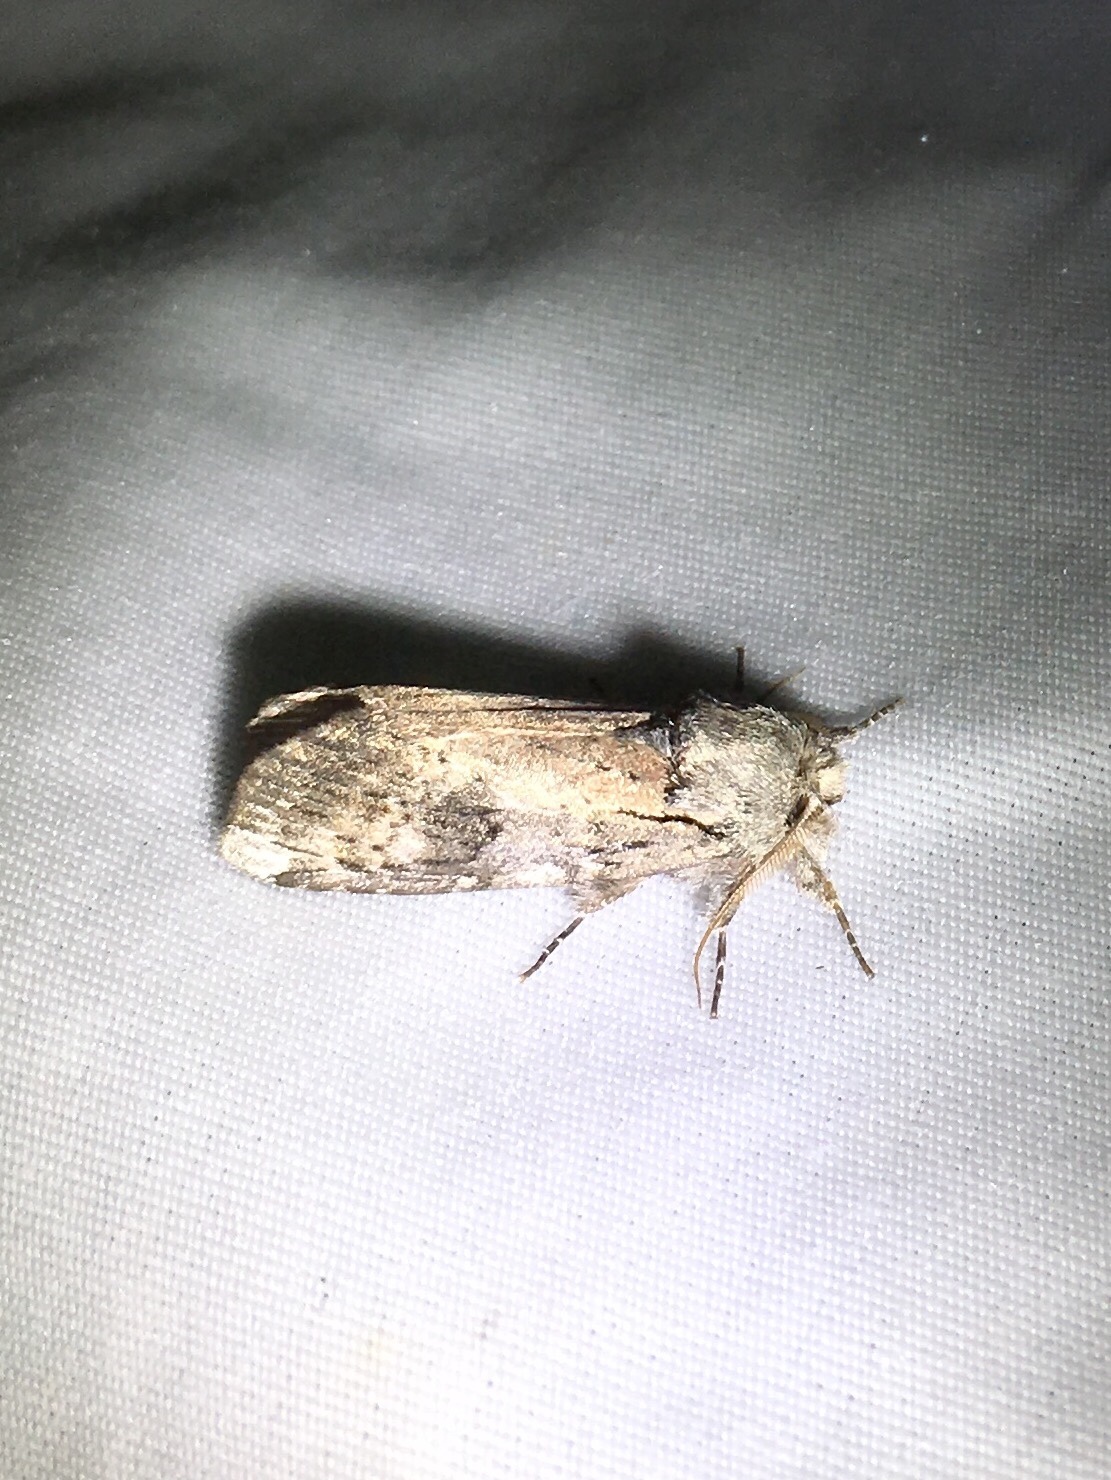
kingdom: Animalia
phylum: Arthropoda
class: Insecta
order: Lepidoptera
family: Notodontidae
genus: Schizura
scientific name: Schizura
